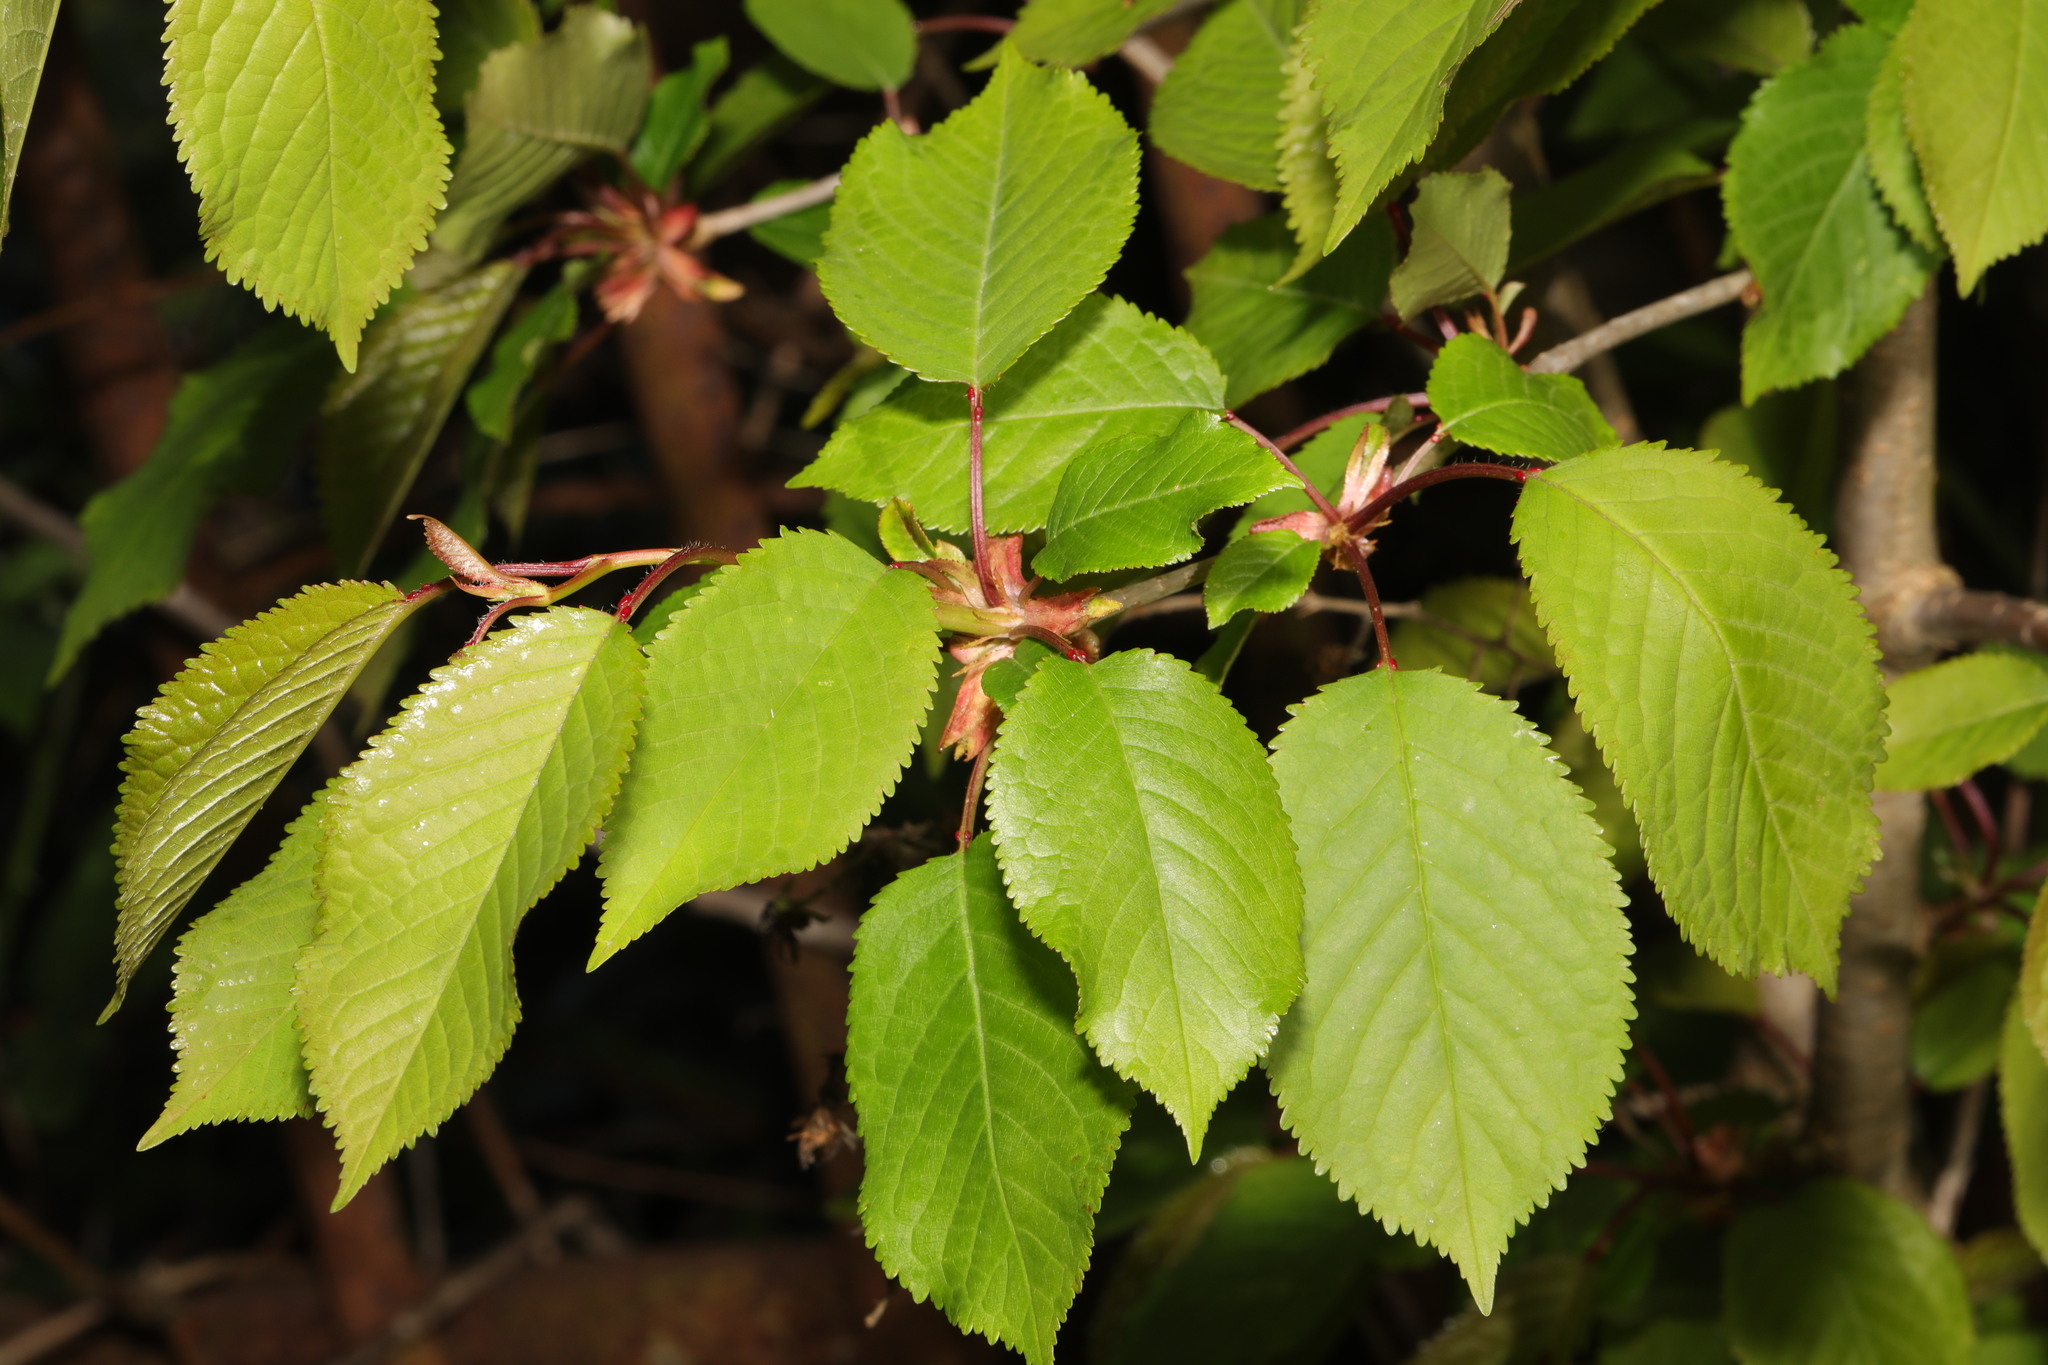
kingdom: Plantae
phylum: Tracheophyta
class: Magnoliopsida
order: Rosales
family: Rosaceae
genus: Prunus
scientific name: Prunus avium
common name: Sweet cherry
